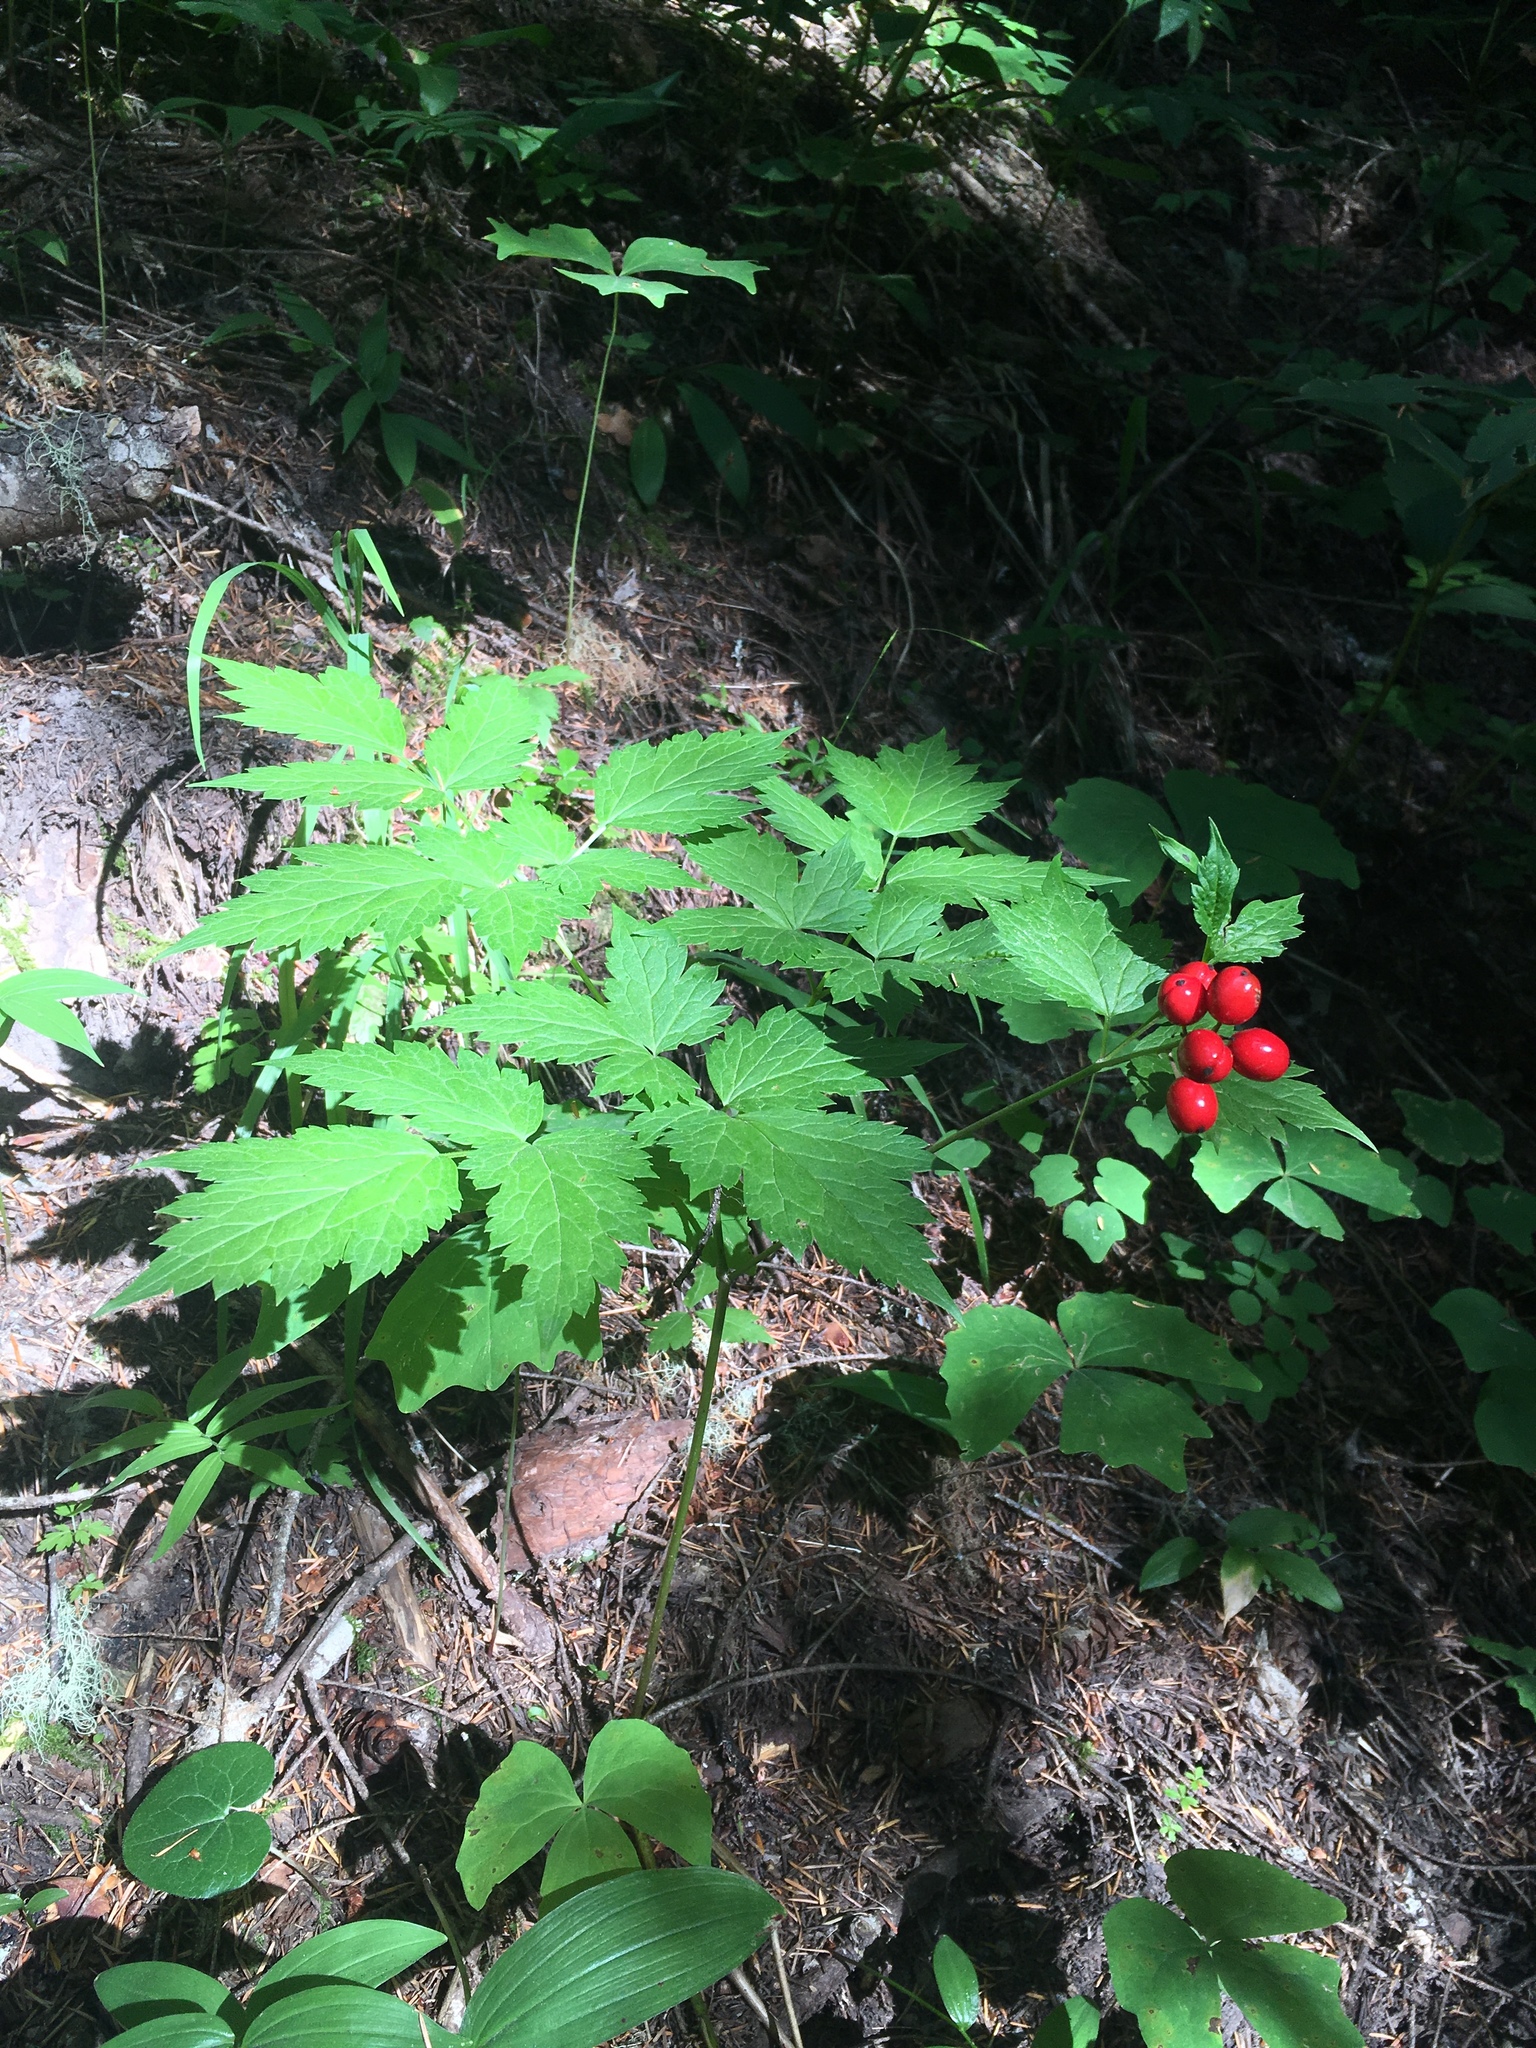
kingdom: Plantae
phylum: Tracheophyta
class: Magnoliopsida
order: Ranunculales
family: Ranunculaceae
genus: Actaea
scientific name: Actaea rubra
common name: Red baneberry
